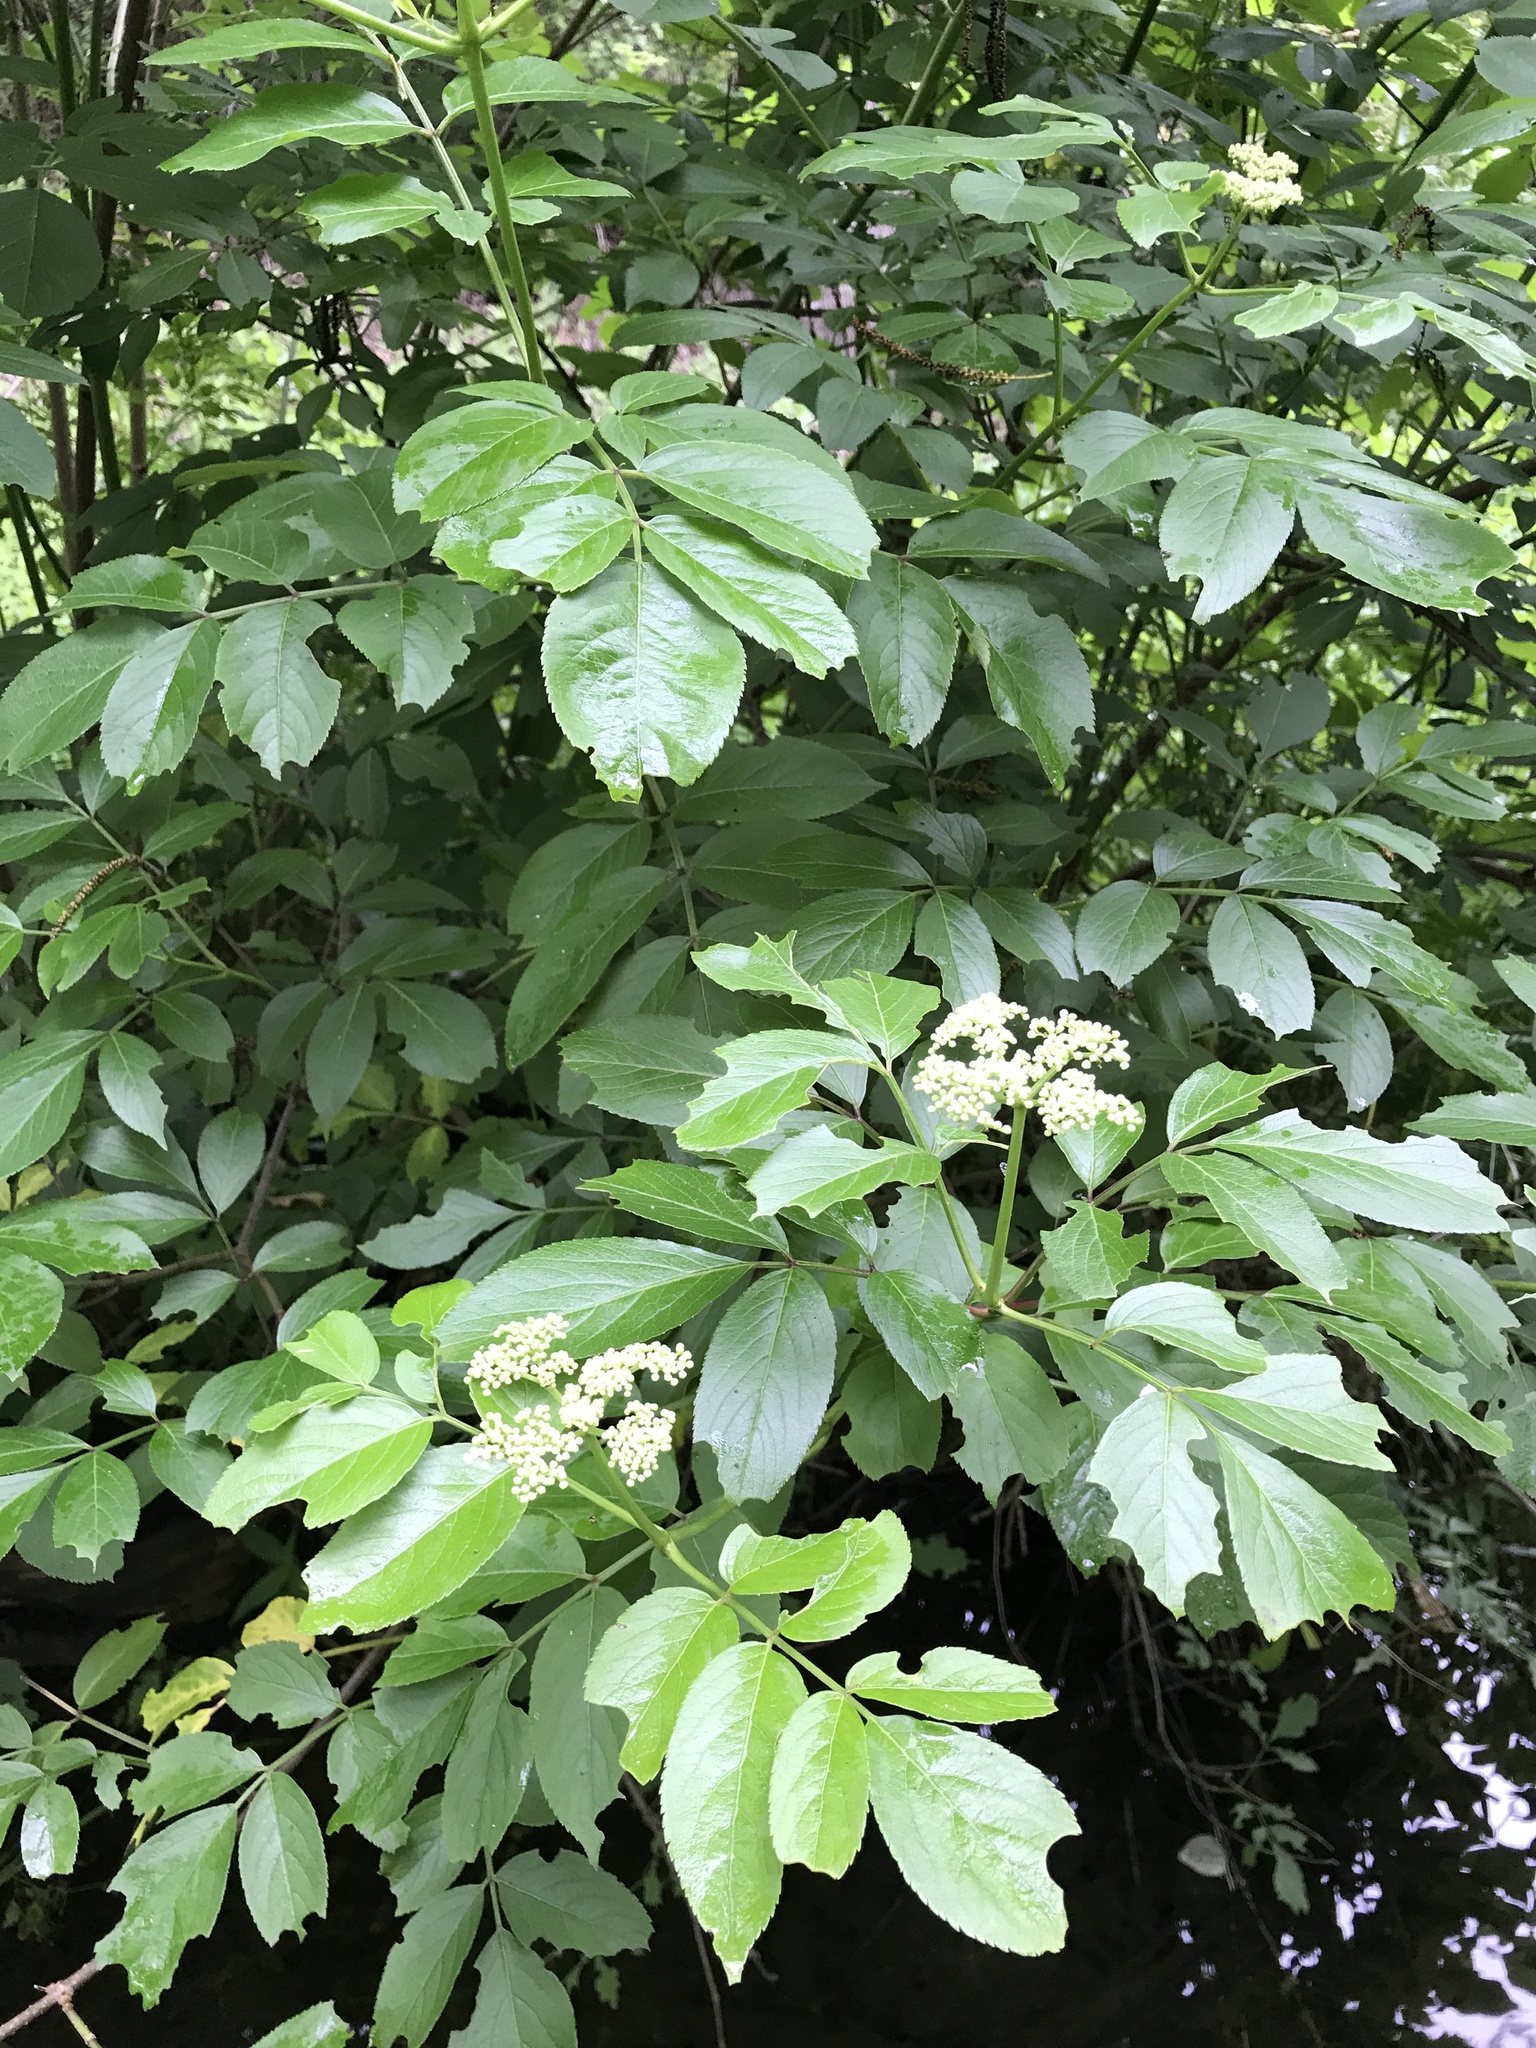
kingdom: Plantae
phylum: Tracheophyta
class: Magnoliopsida
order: Dipsacales
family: Viburnaceae
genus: Sambucus
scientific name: Sambucus canadensis
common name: American elder
